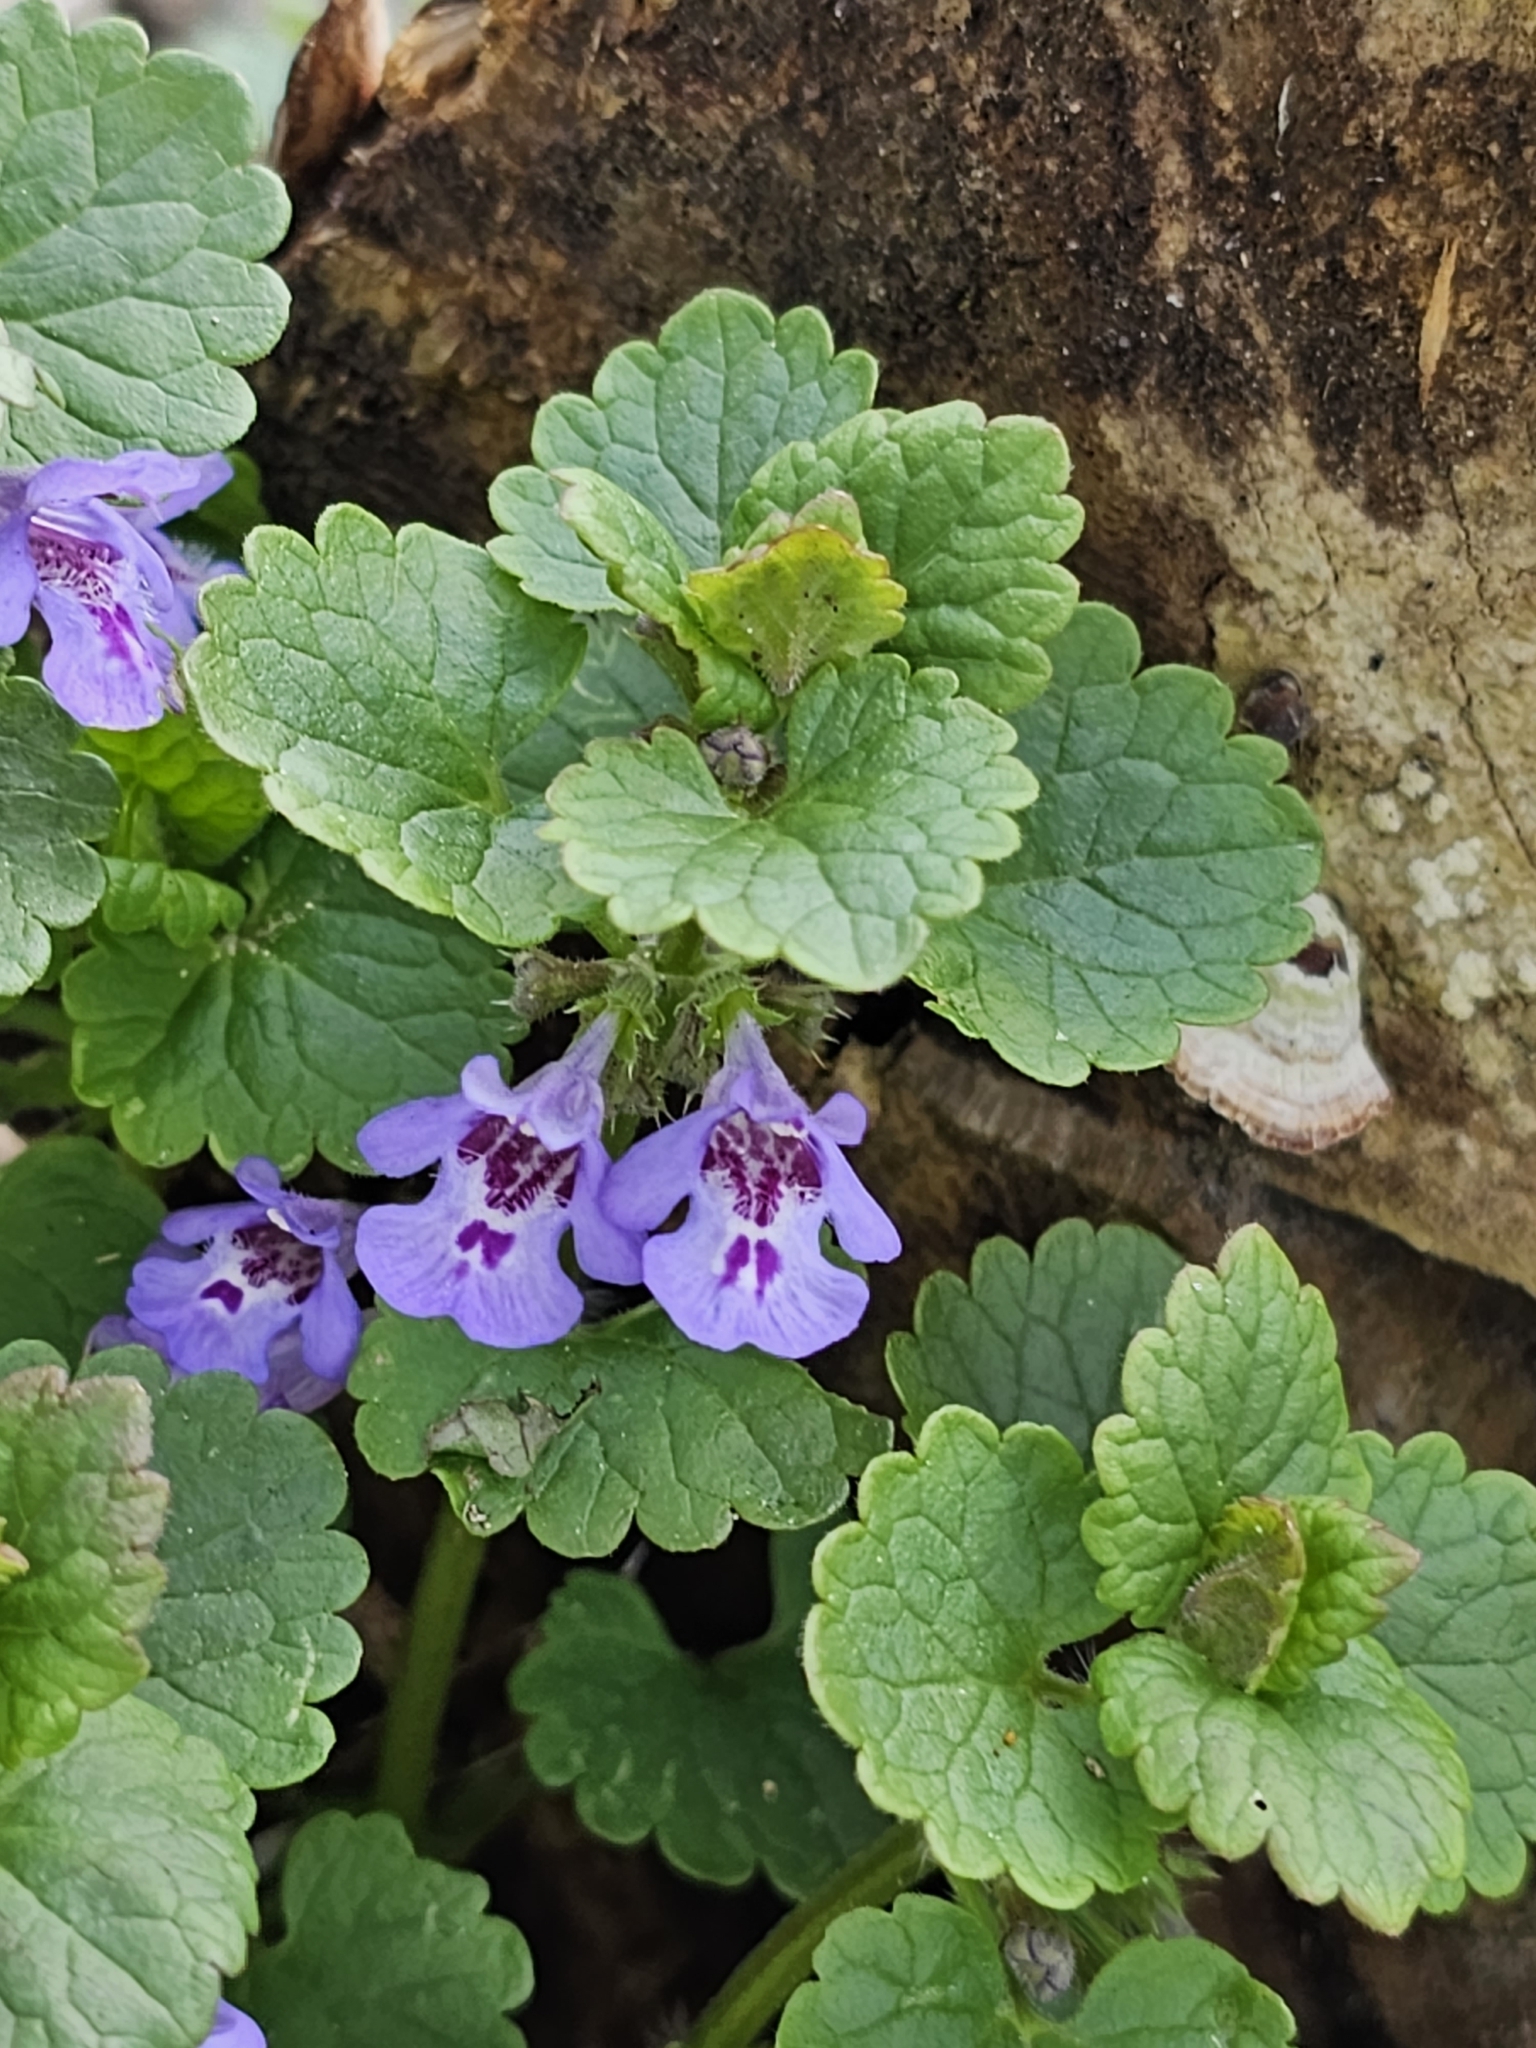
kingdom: Plantae
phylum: Tracheophyta
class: Magnoliopsida
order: Lamiales
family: Lamiaceae
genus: Glechoma
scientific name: Glechoma hederacea
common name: Ground ivy
